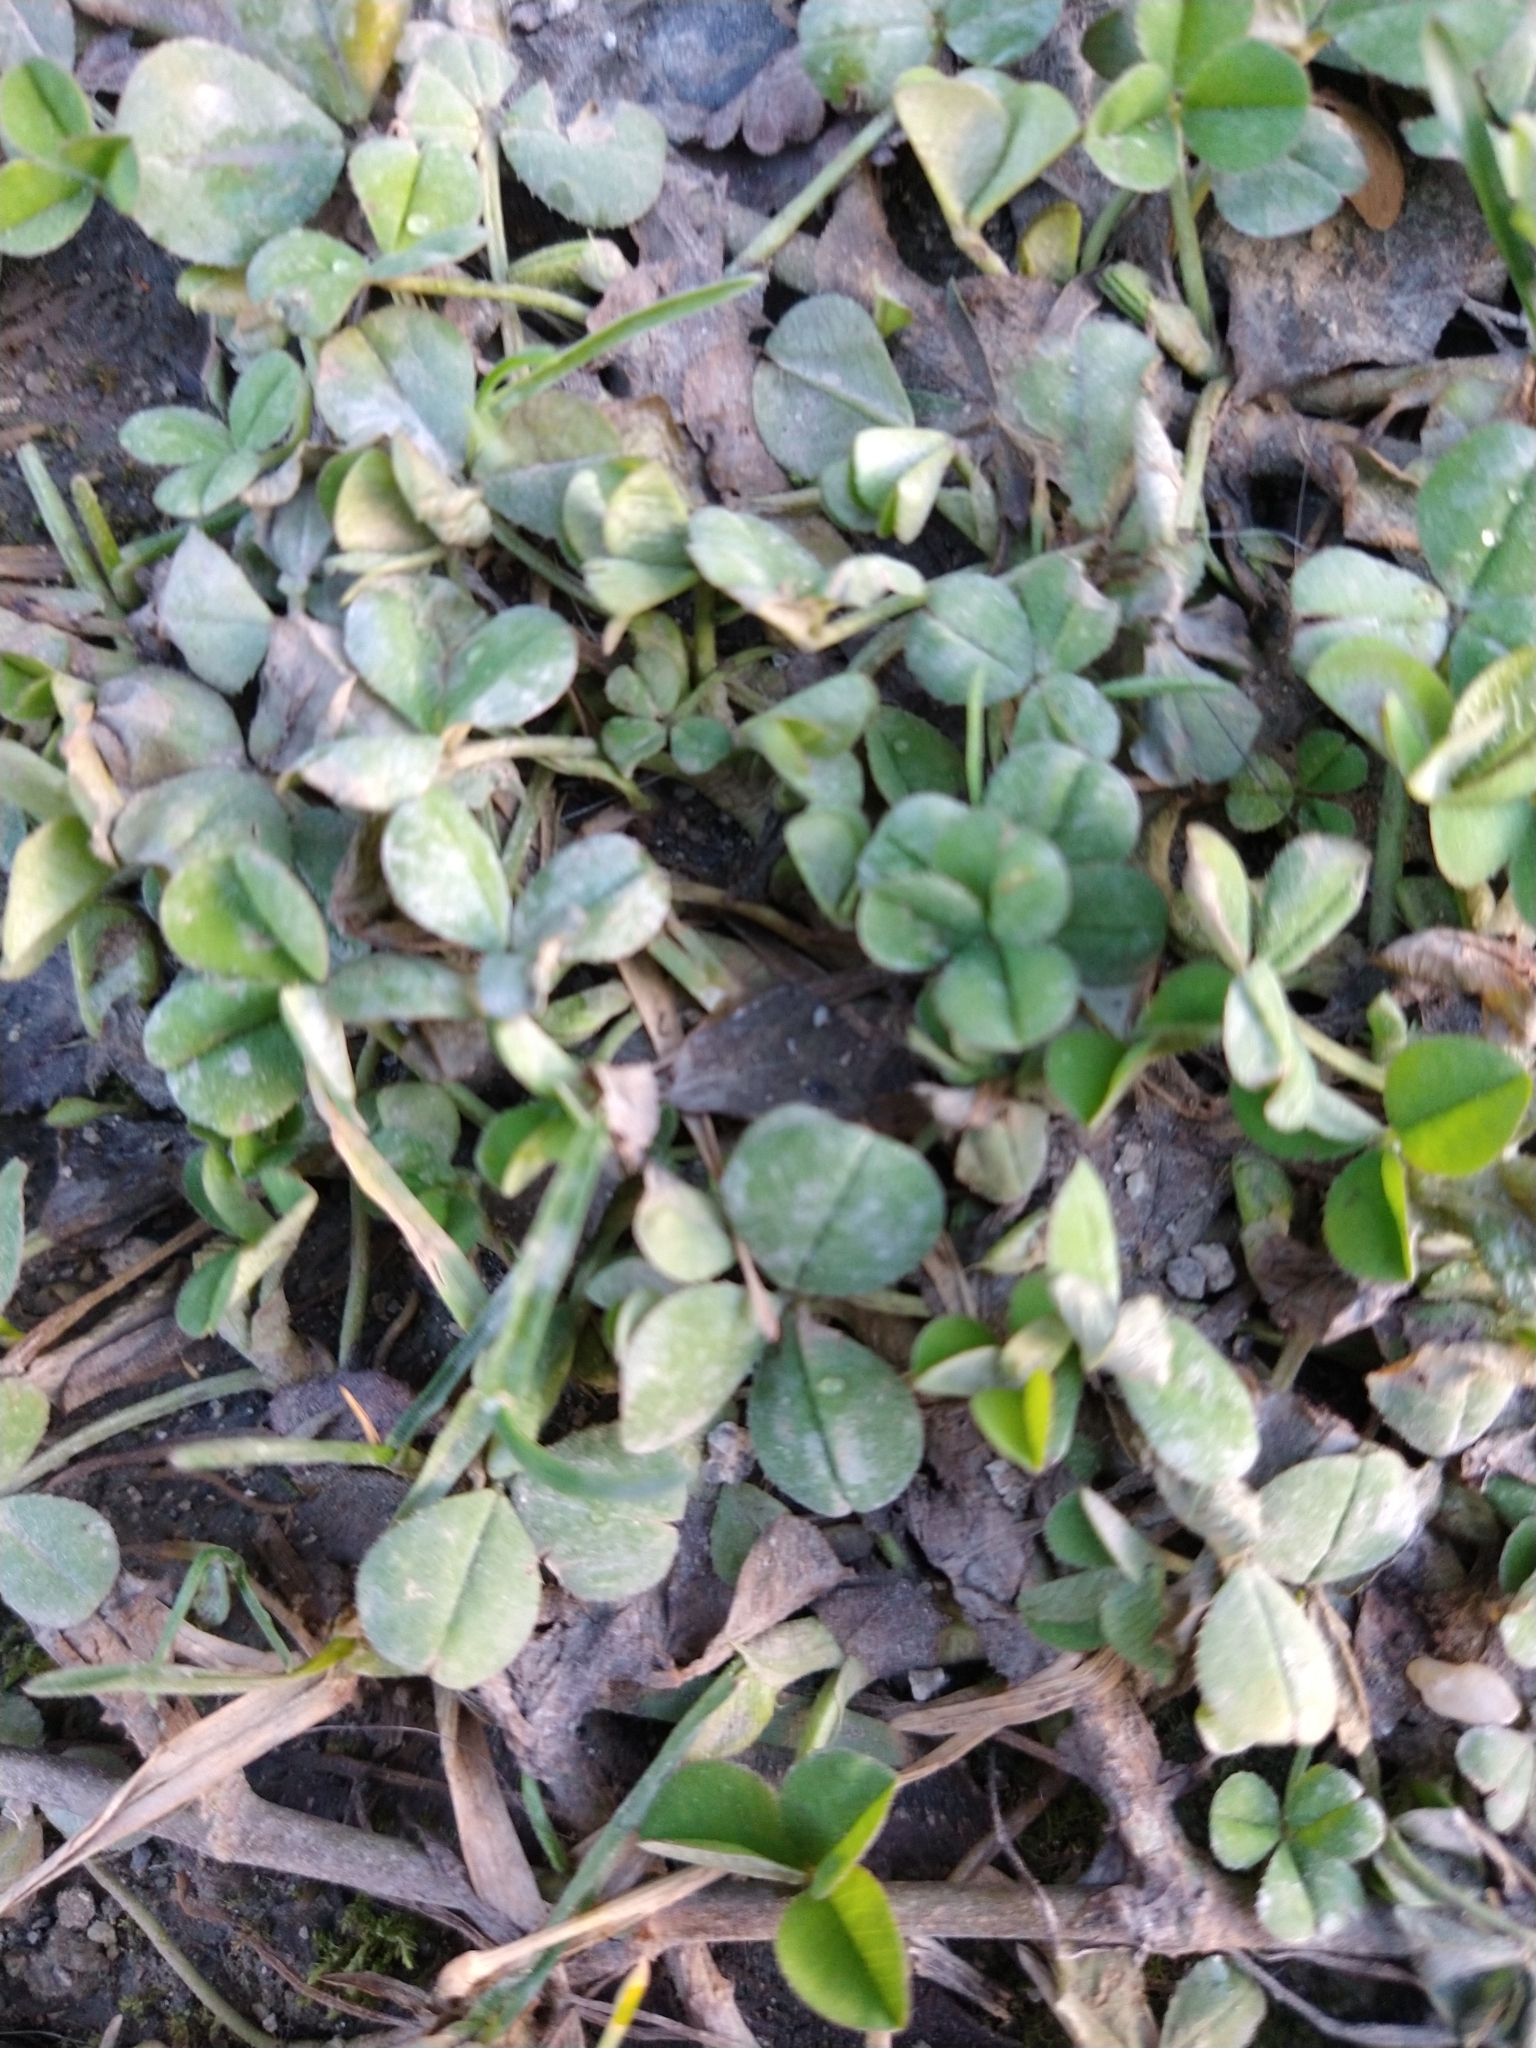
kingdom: Plantae
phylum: Tracheophyta
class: Magnoliopsida
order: Fabales
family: Fabaceae
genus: Trifolium
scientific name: Trifolium repens
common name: White clover
